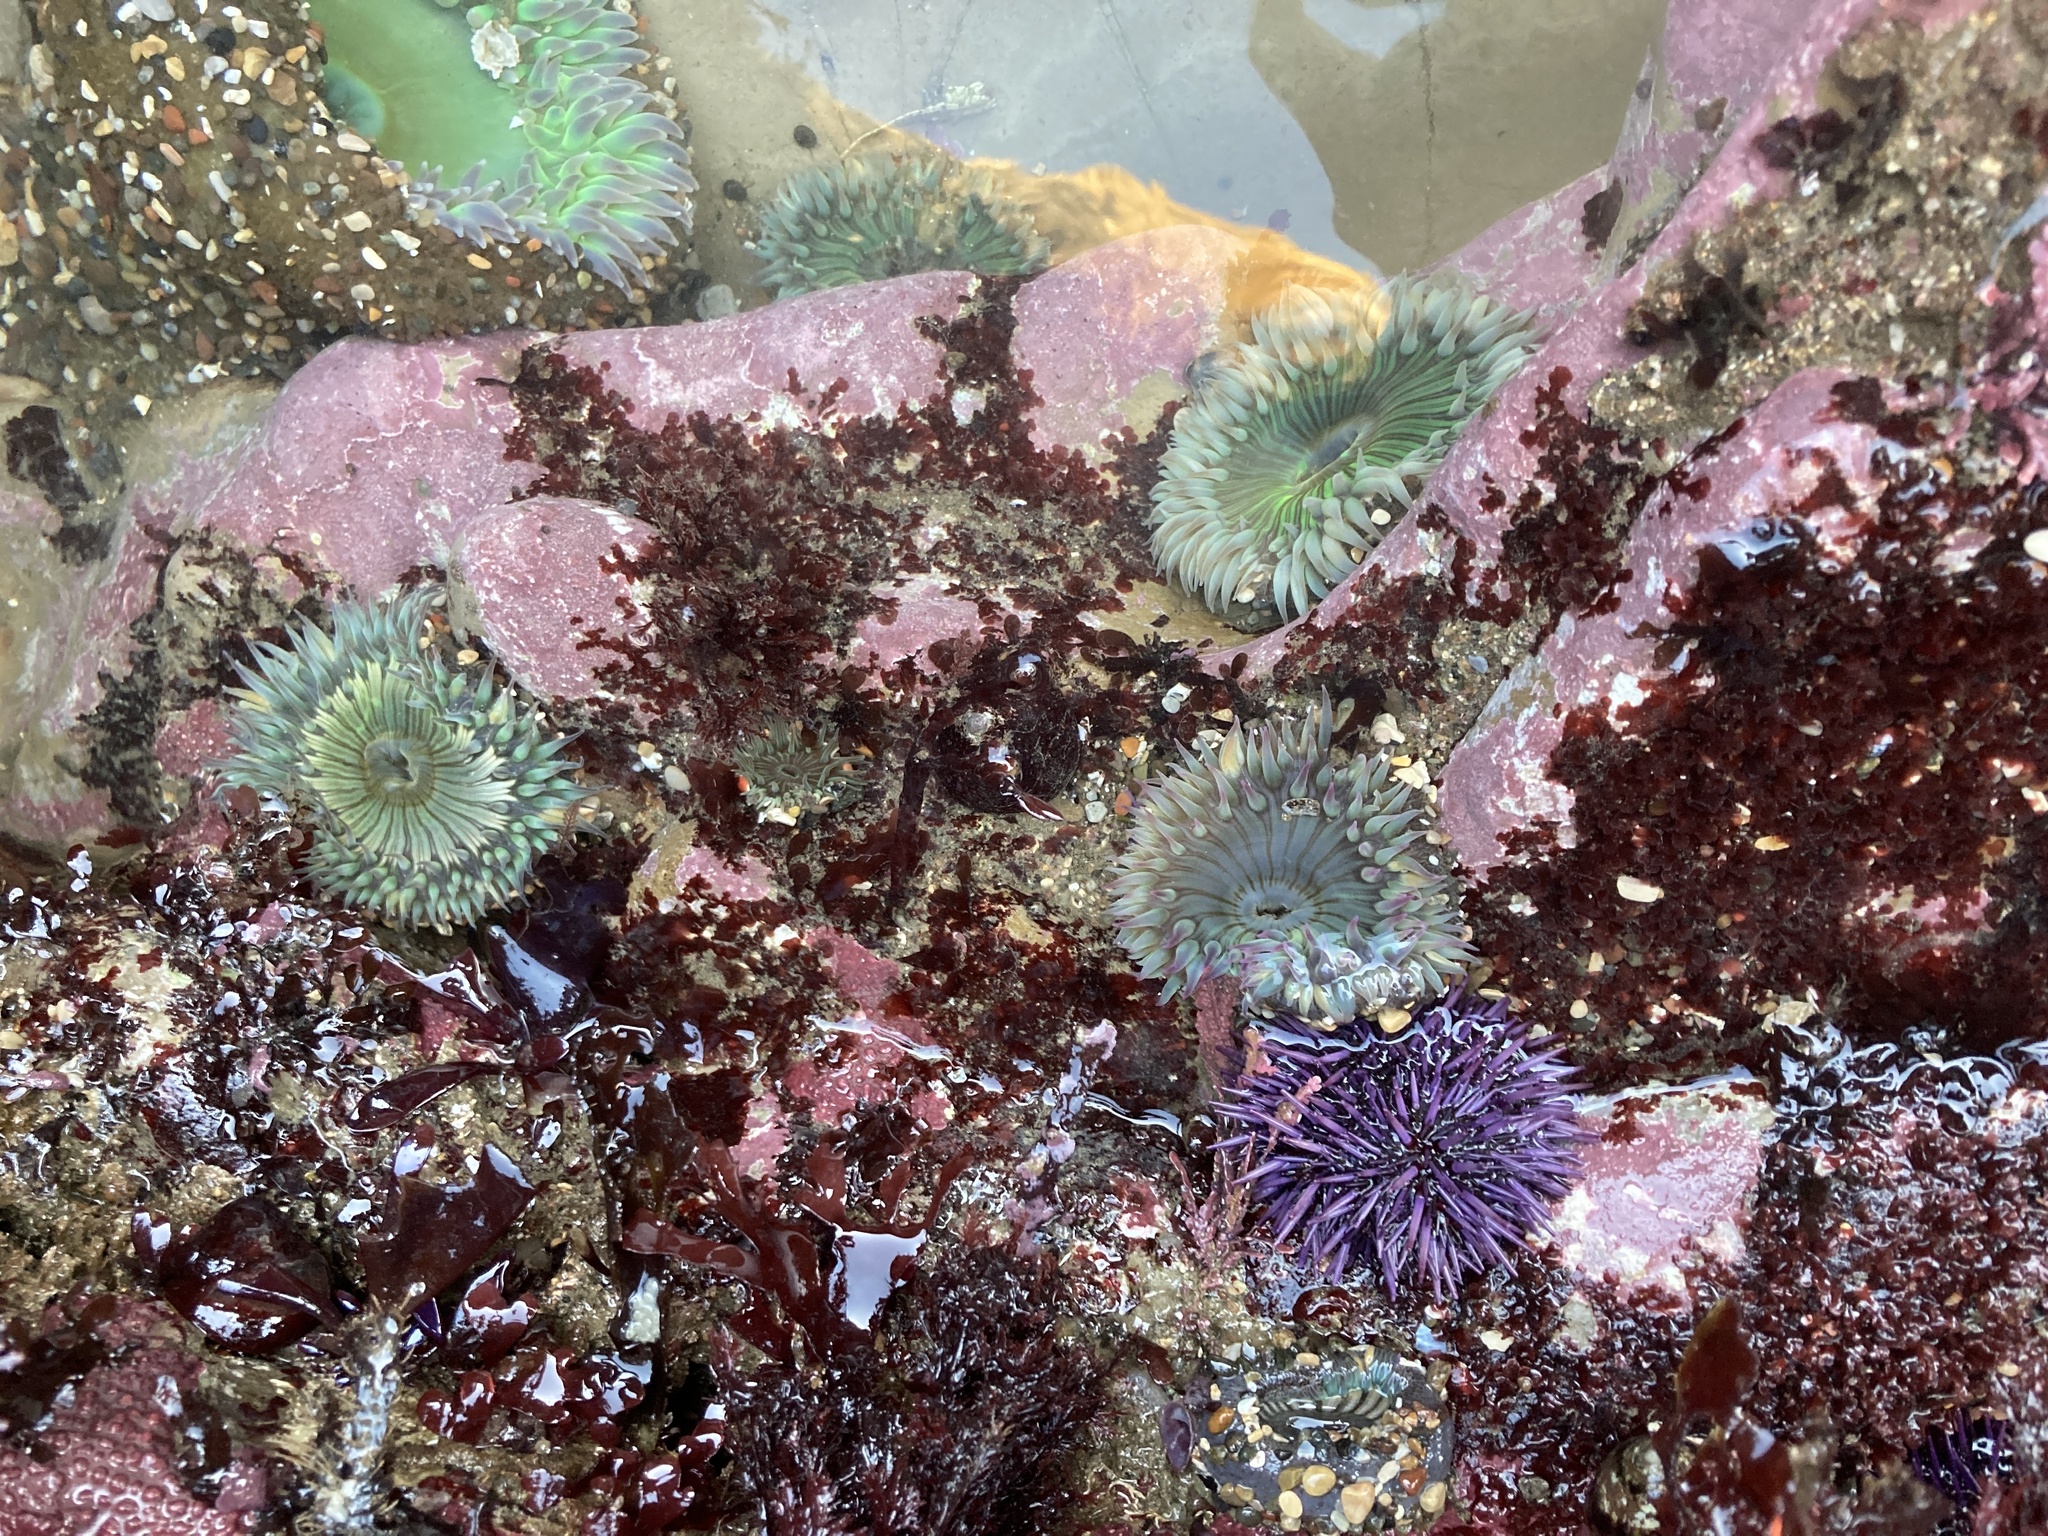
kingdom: Animalia
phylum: Cnidaria
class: Anthozoa
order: Actiniaria
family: Actiniidae
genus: Anthopleura
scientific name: Anthopleura sola
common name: Sun anemone
